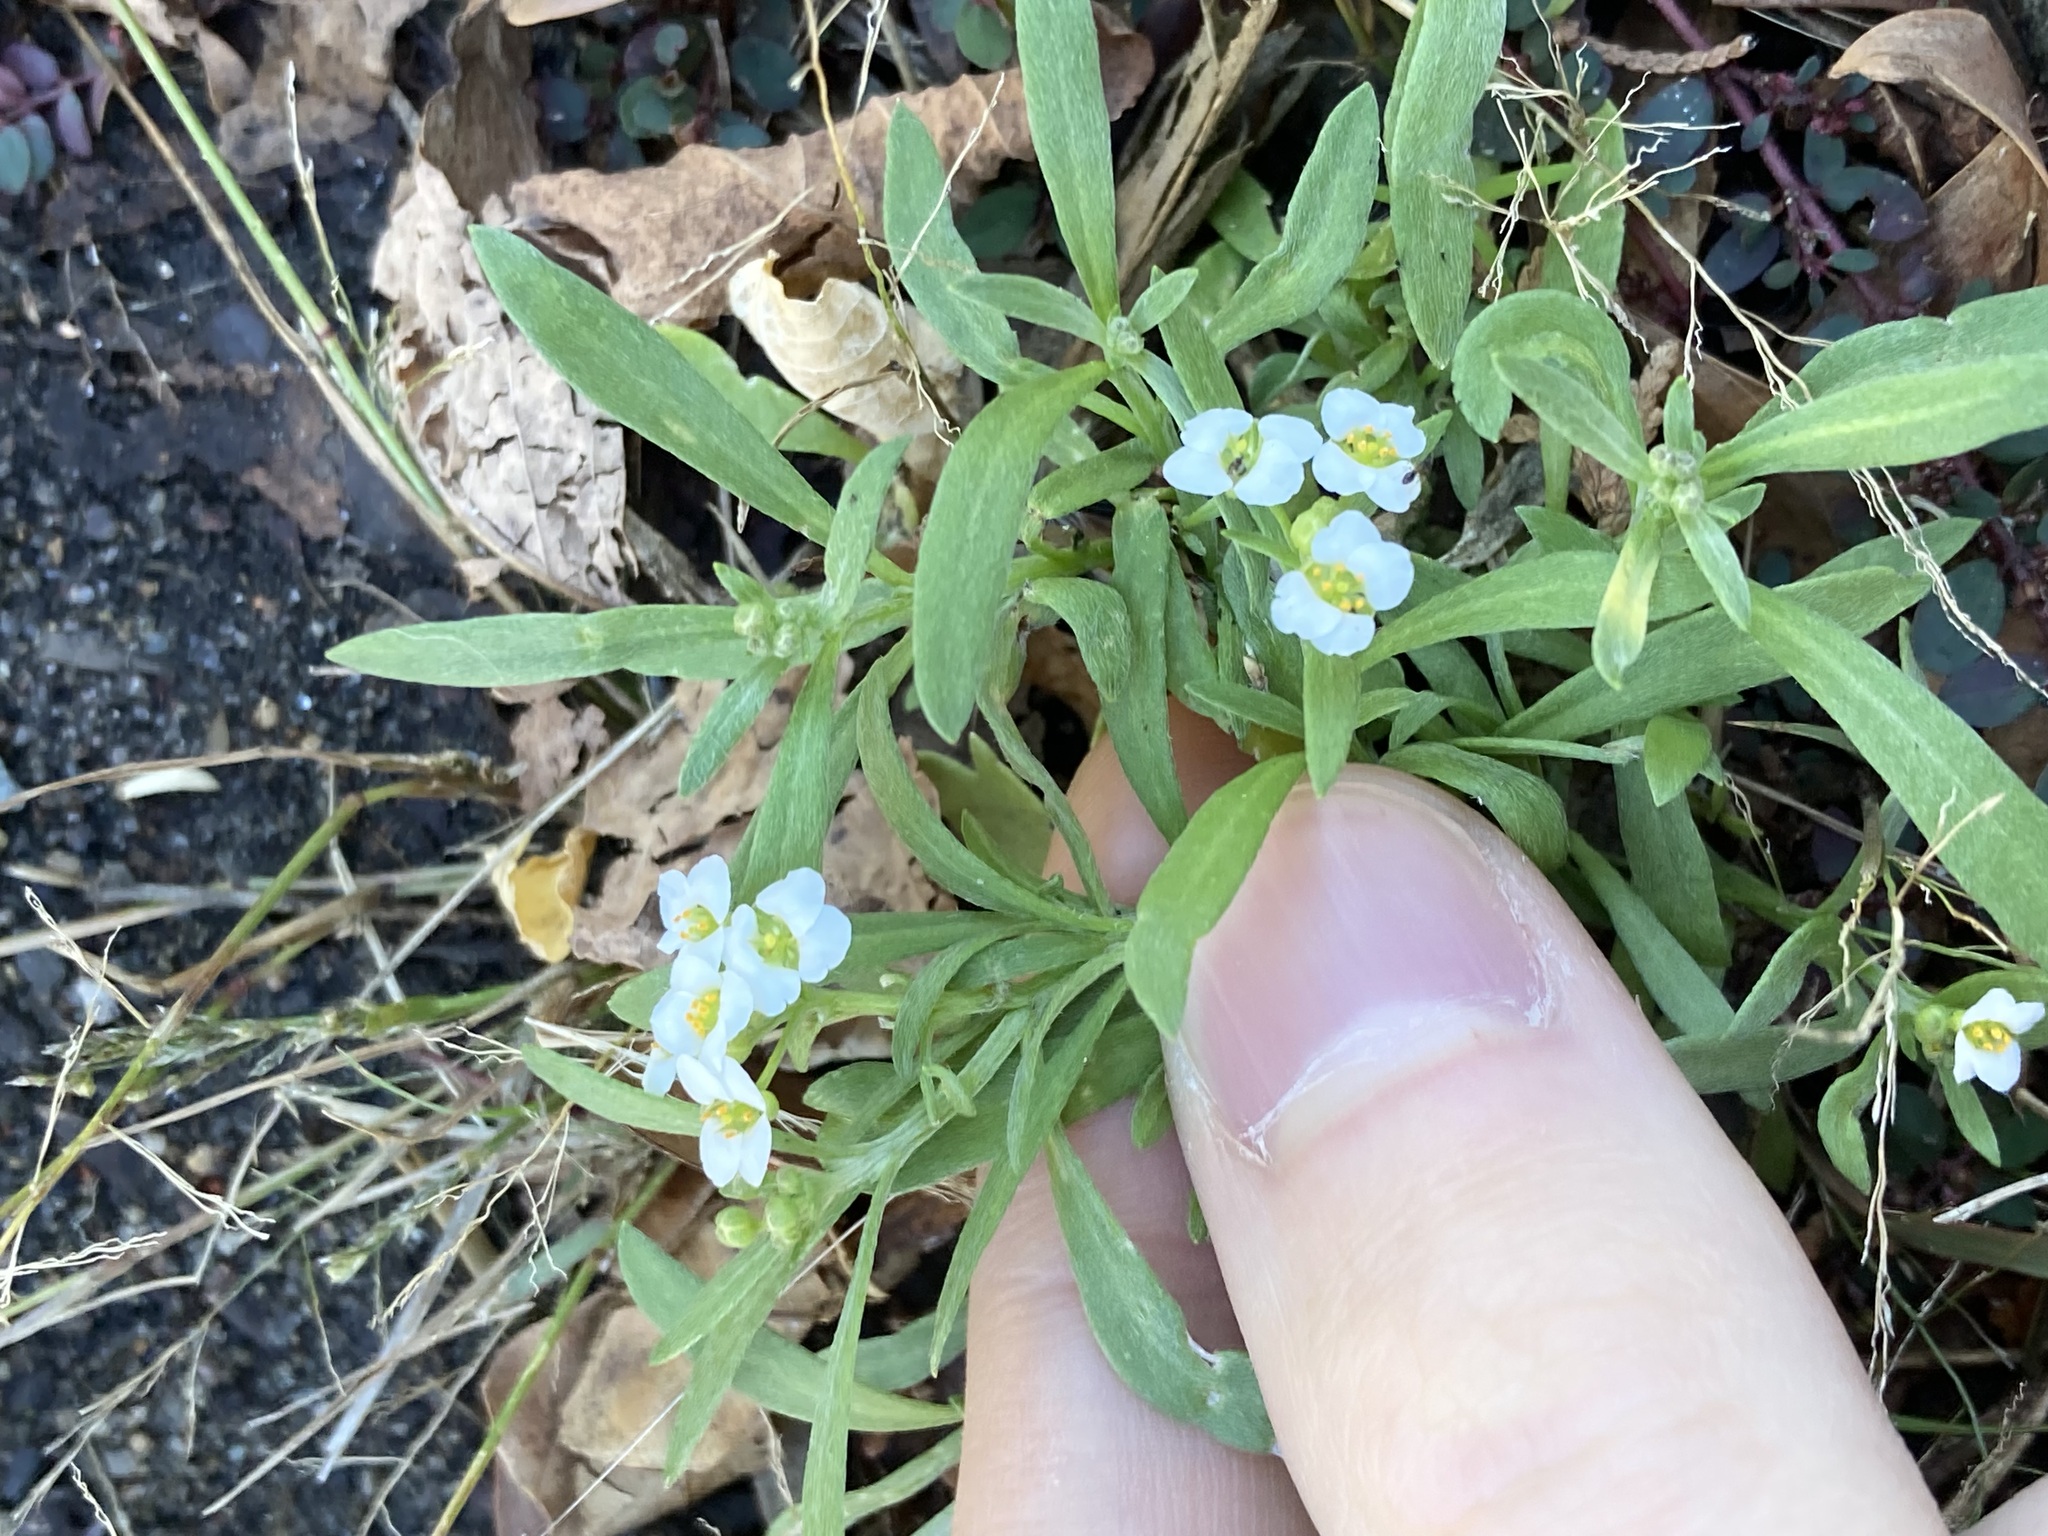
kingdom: Plantae
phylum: Tracheophyta
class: Magnoliopsida
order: Brassicales
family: Brassicaceae
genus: Lobularia
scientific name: Lobularia maritima
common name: Sweet alison
